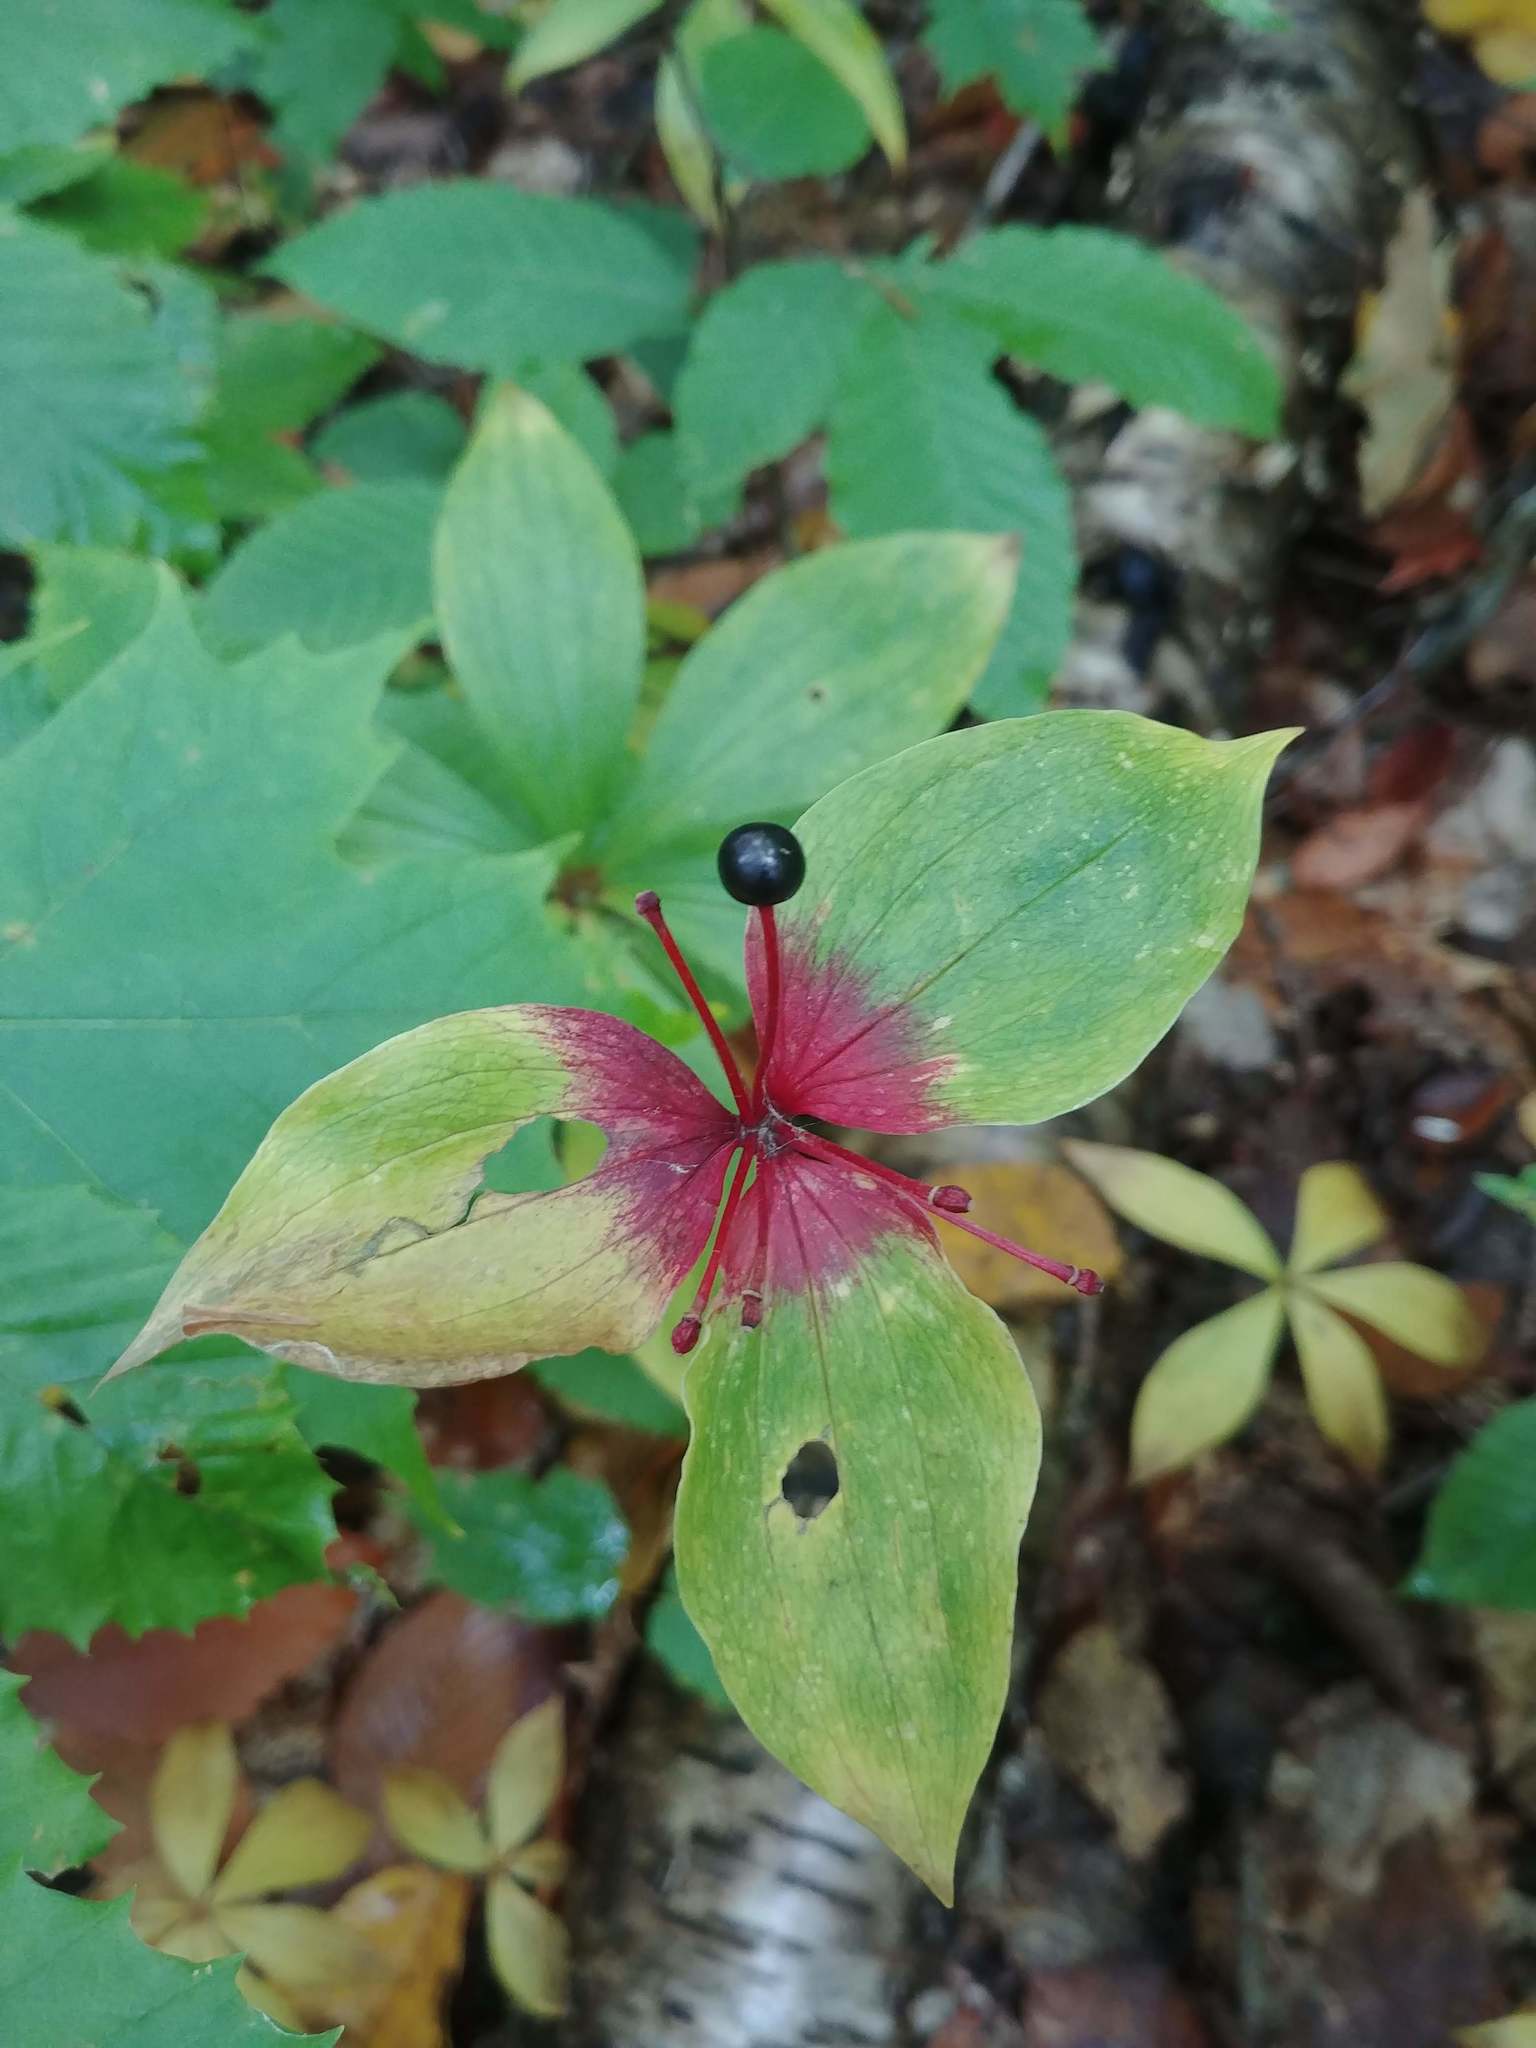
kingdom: Plantae
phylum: Tracheophyta
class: Liliopsida
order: Liliales
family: Liliaceae
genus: Medeola
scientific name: Medeola virginiana
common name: Indian cucumber-root
